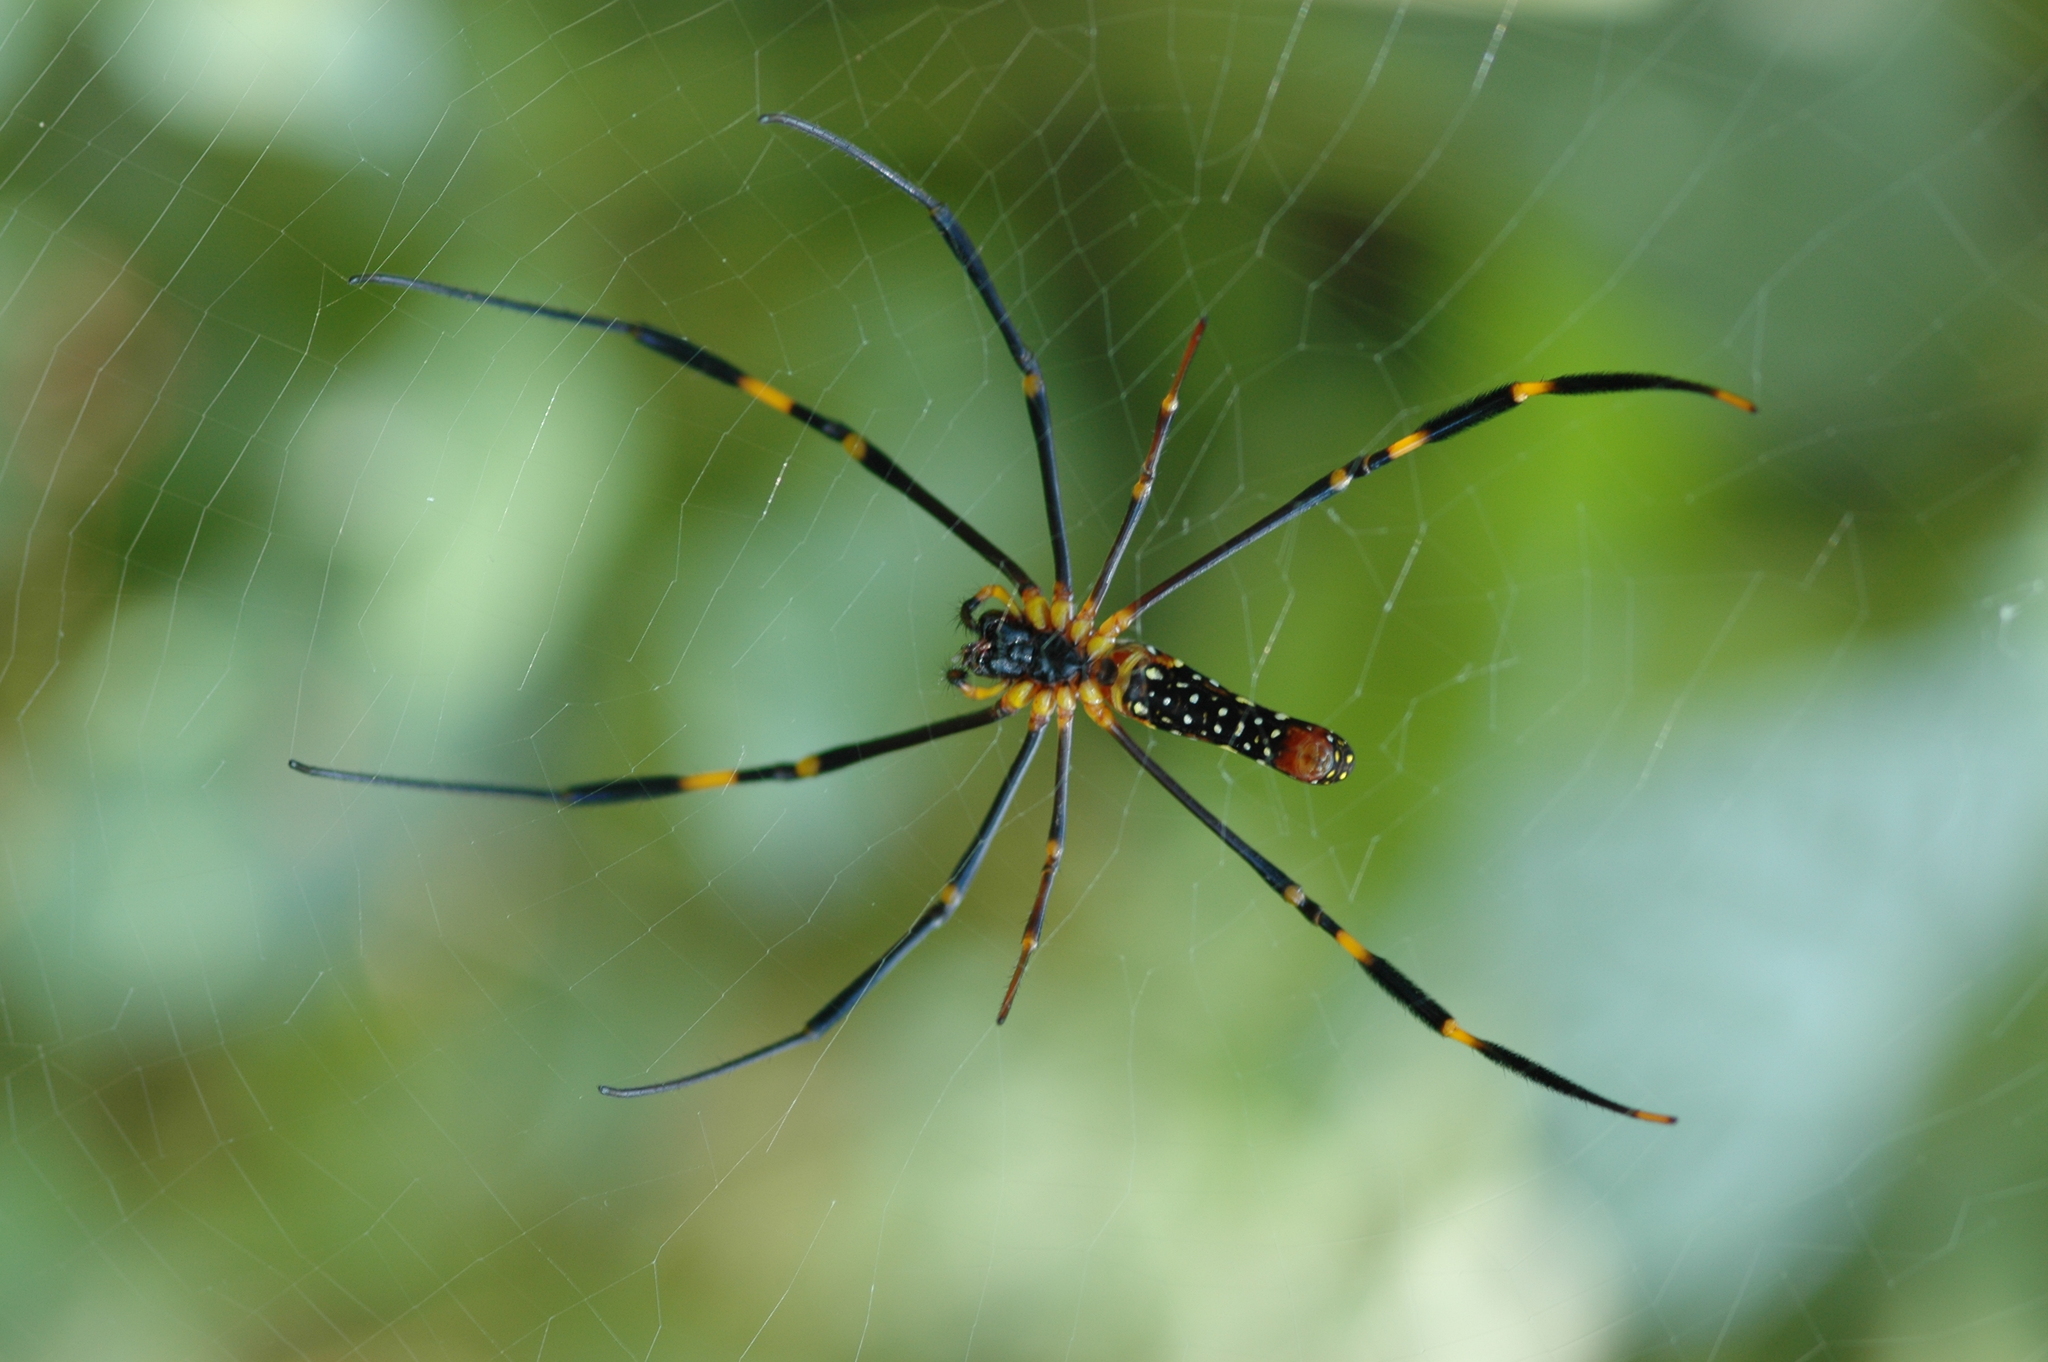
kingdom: Animalia
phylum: Arthropoda
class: Arachnida
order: Araneae
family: Araneidae
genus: Nephila
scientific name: Nephila pilipes
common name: Giant golden orb weaver
